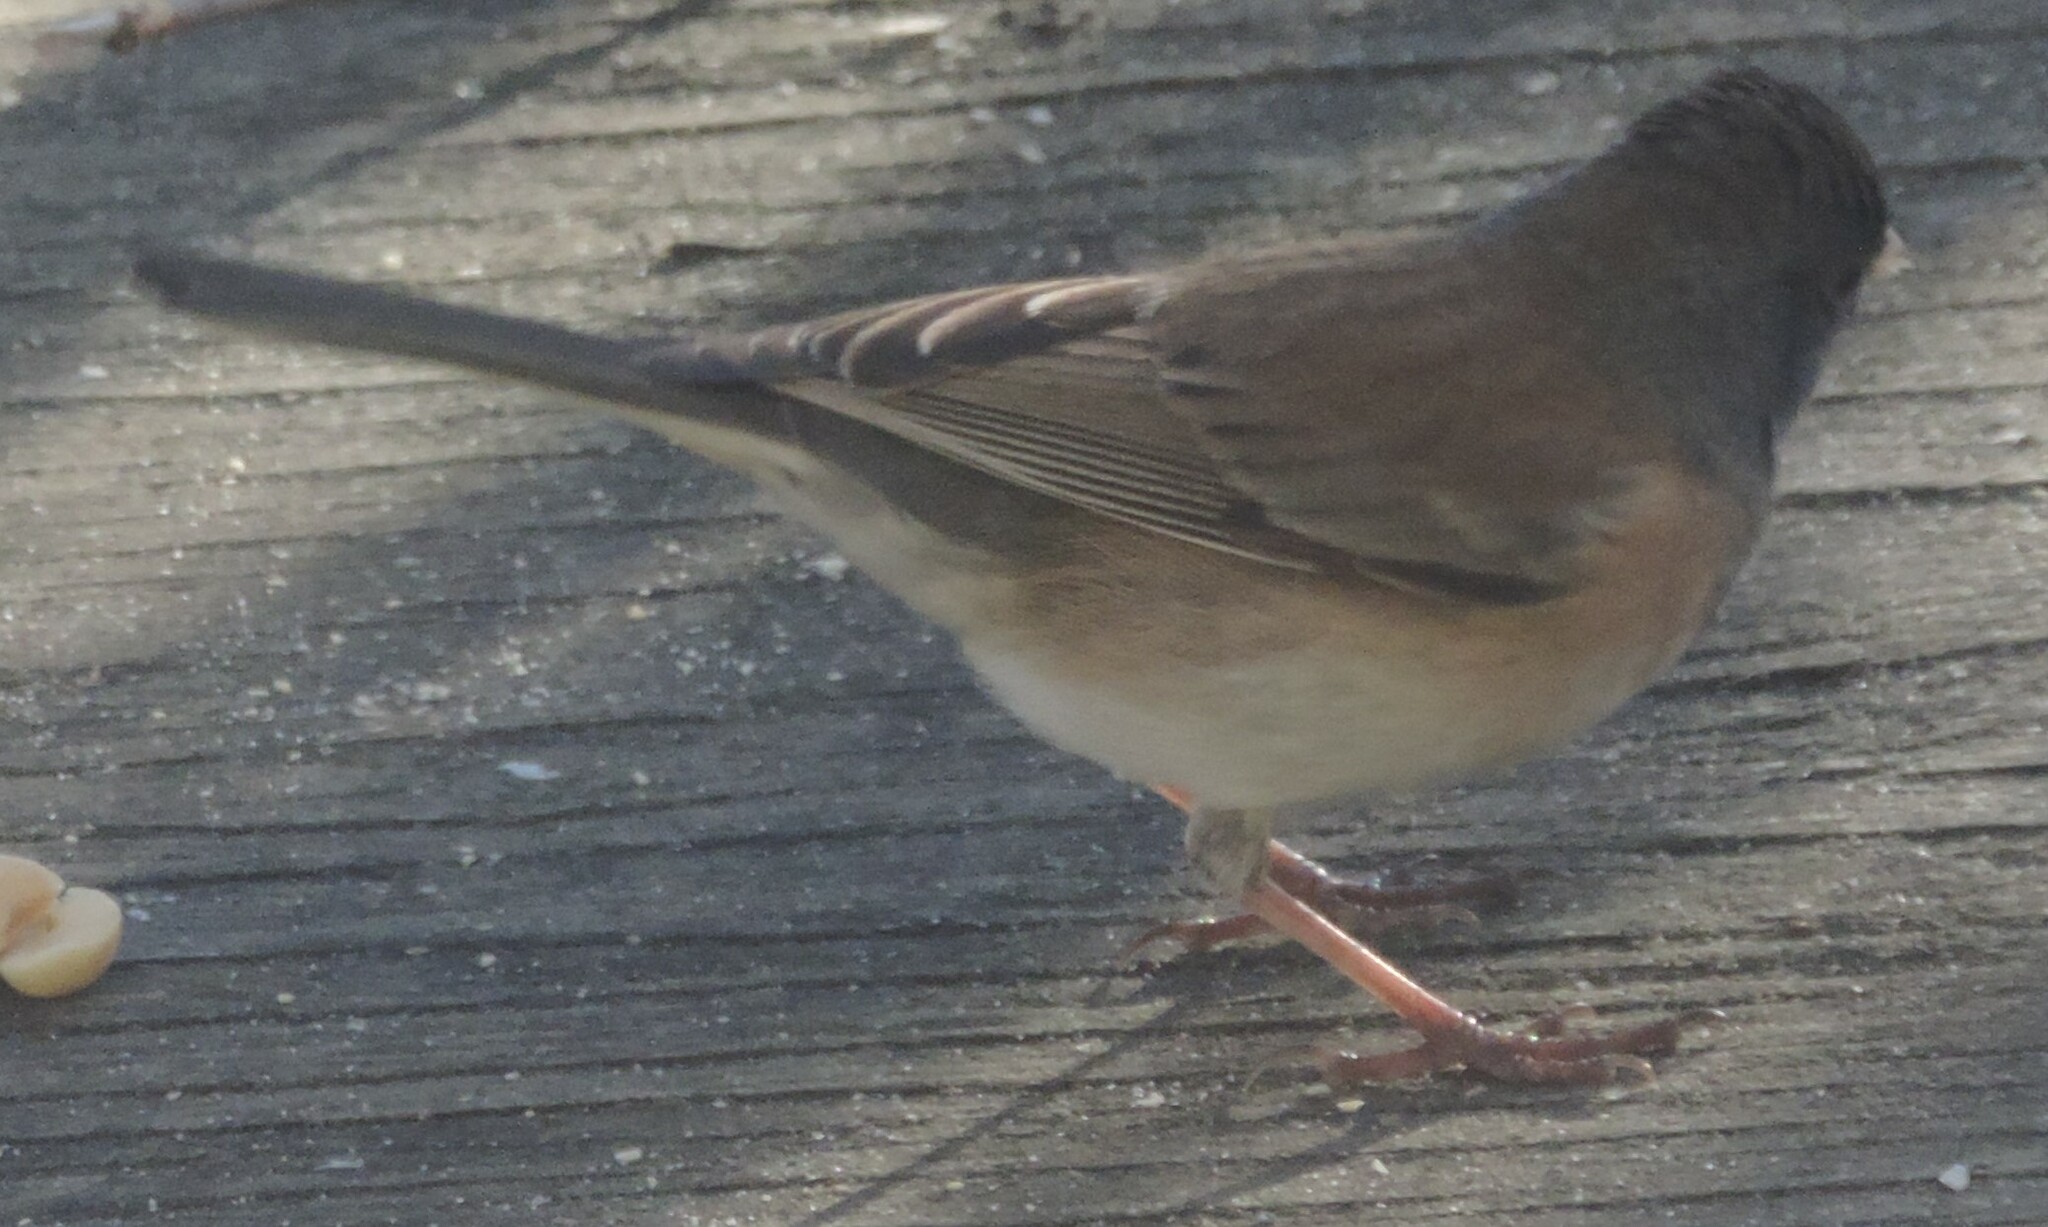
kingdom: Animalia
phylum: Chordata
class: Aves
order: Passeriformes
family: Passerellidae
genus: Junco
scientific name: Junco hyemalis
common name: Dark-eyed junco
